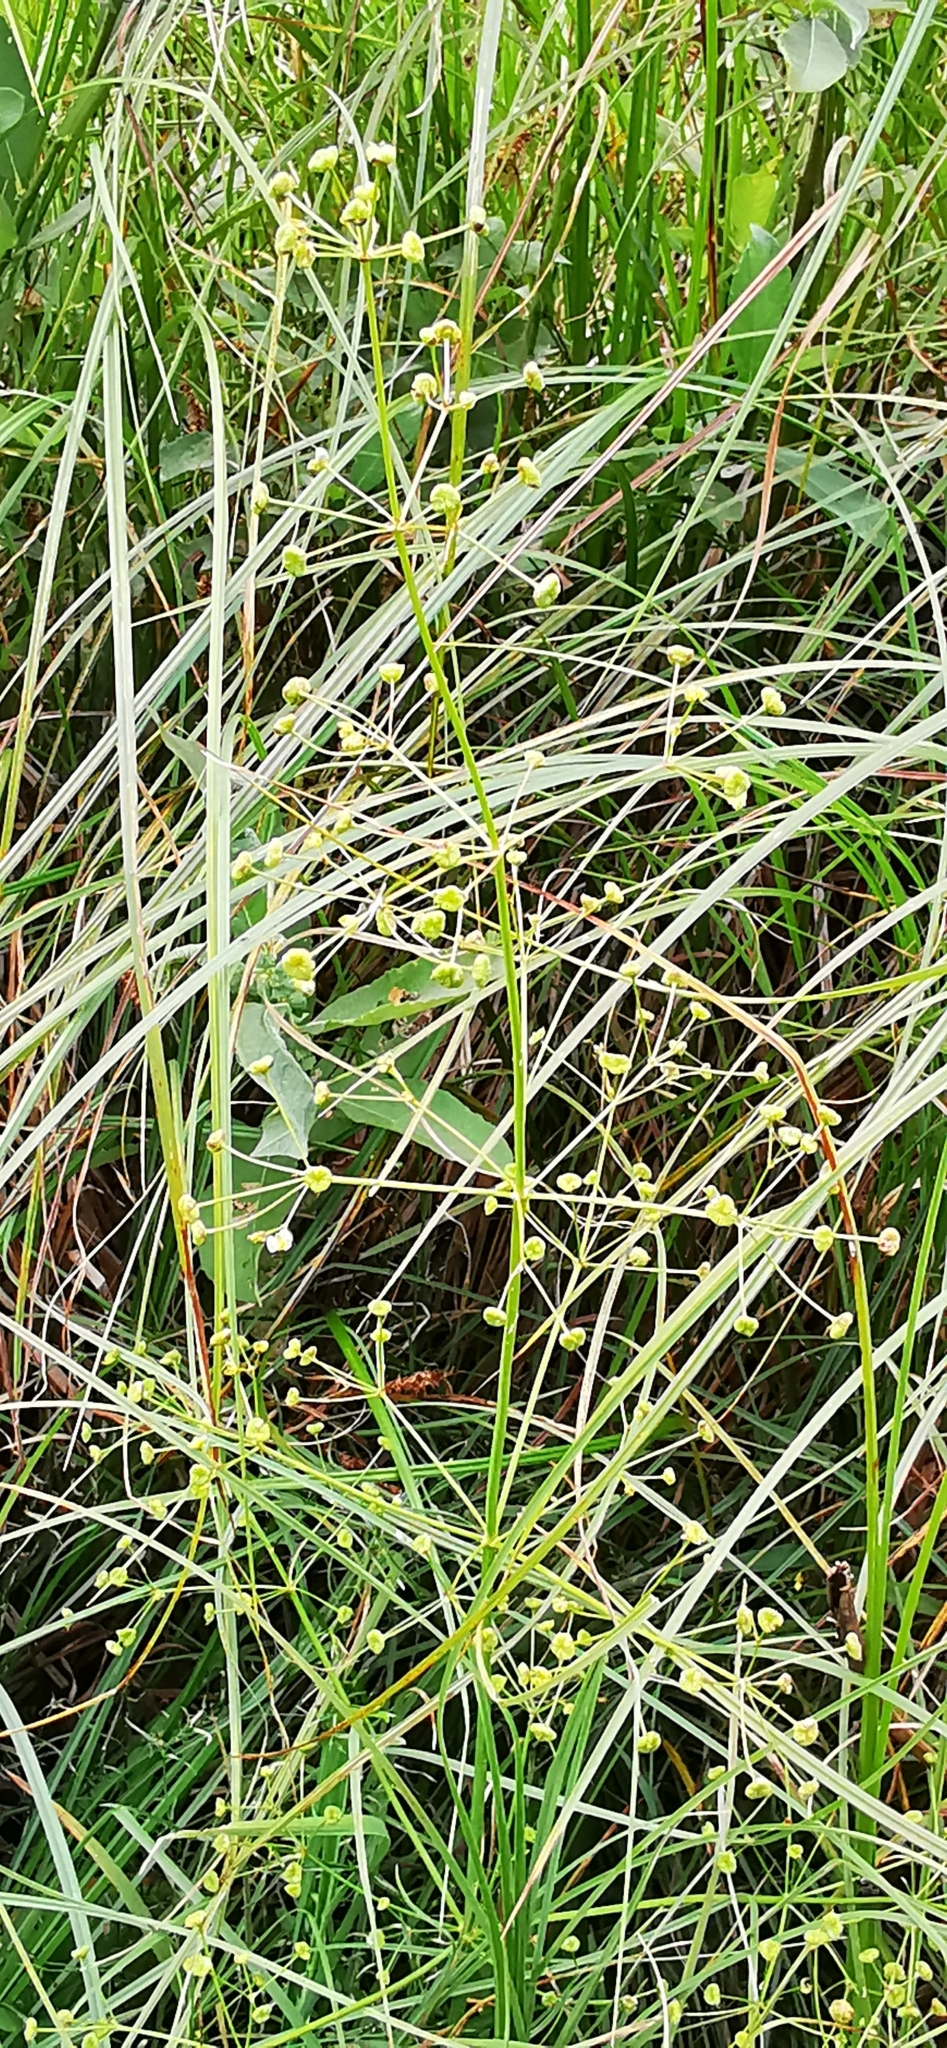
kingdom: Plantae
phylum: Tracheophyta
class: Liliopsida
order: Alismatales
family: Alismataceae
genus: Alisma
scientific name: Alisma plantago-aquatica
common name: Water-plantain
